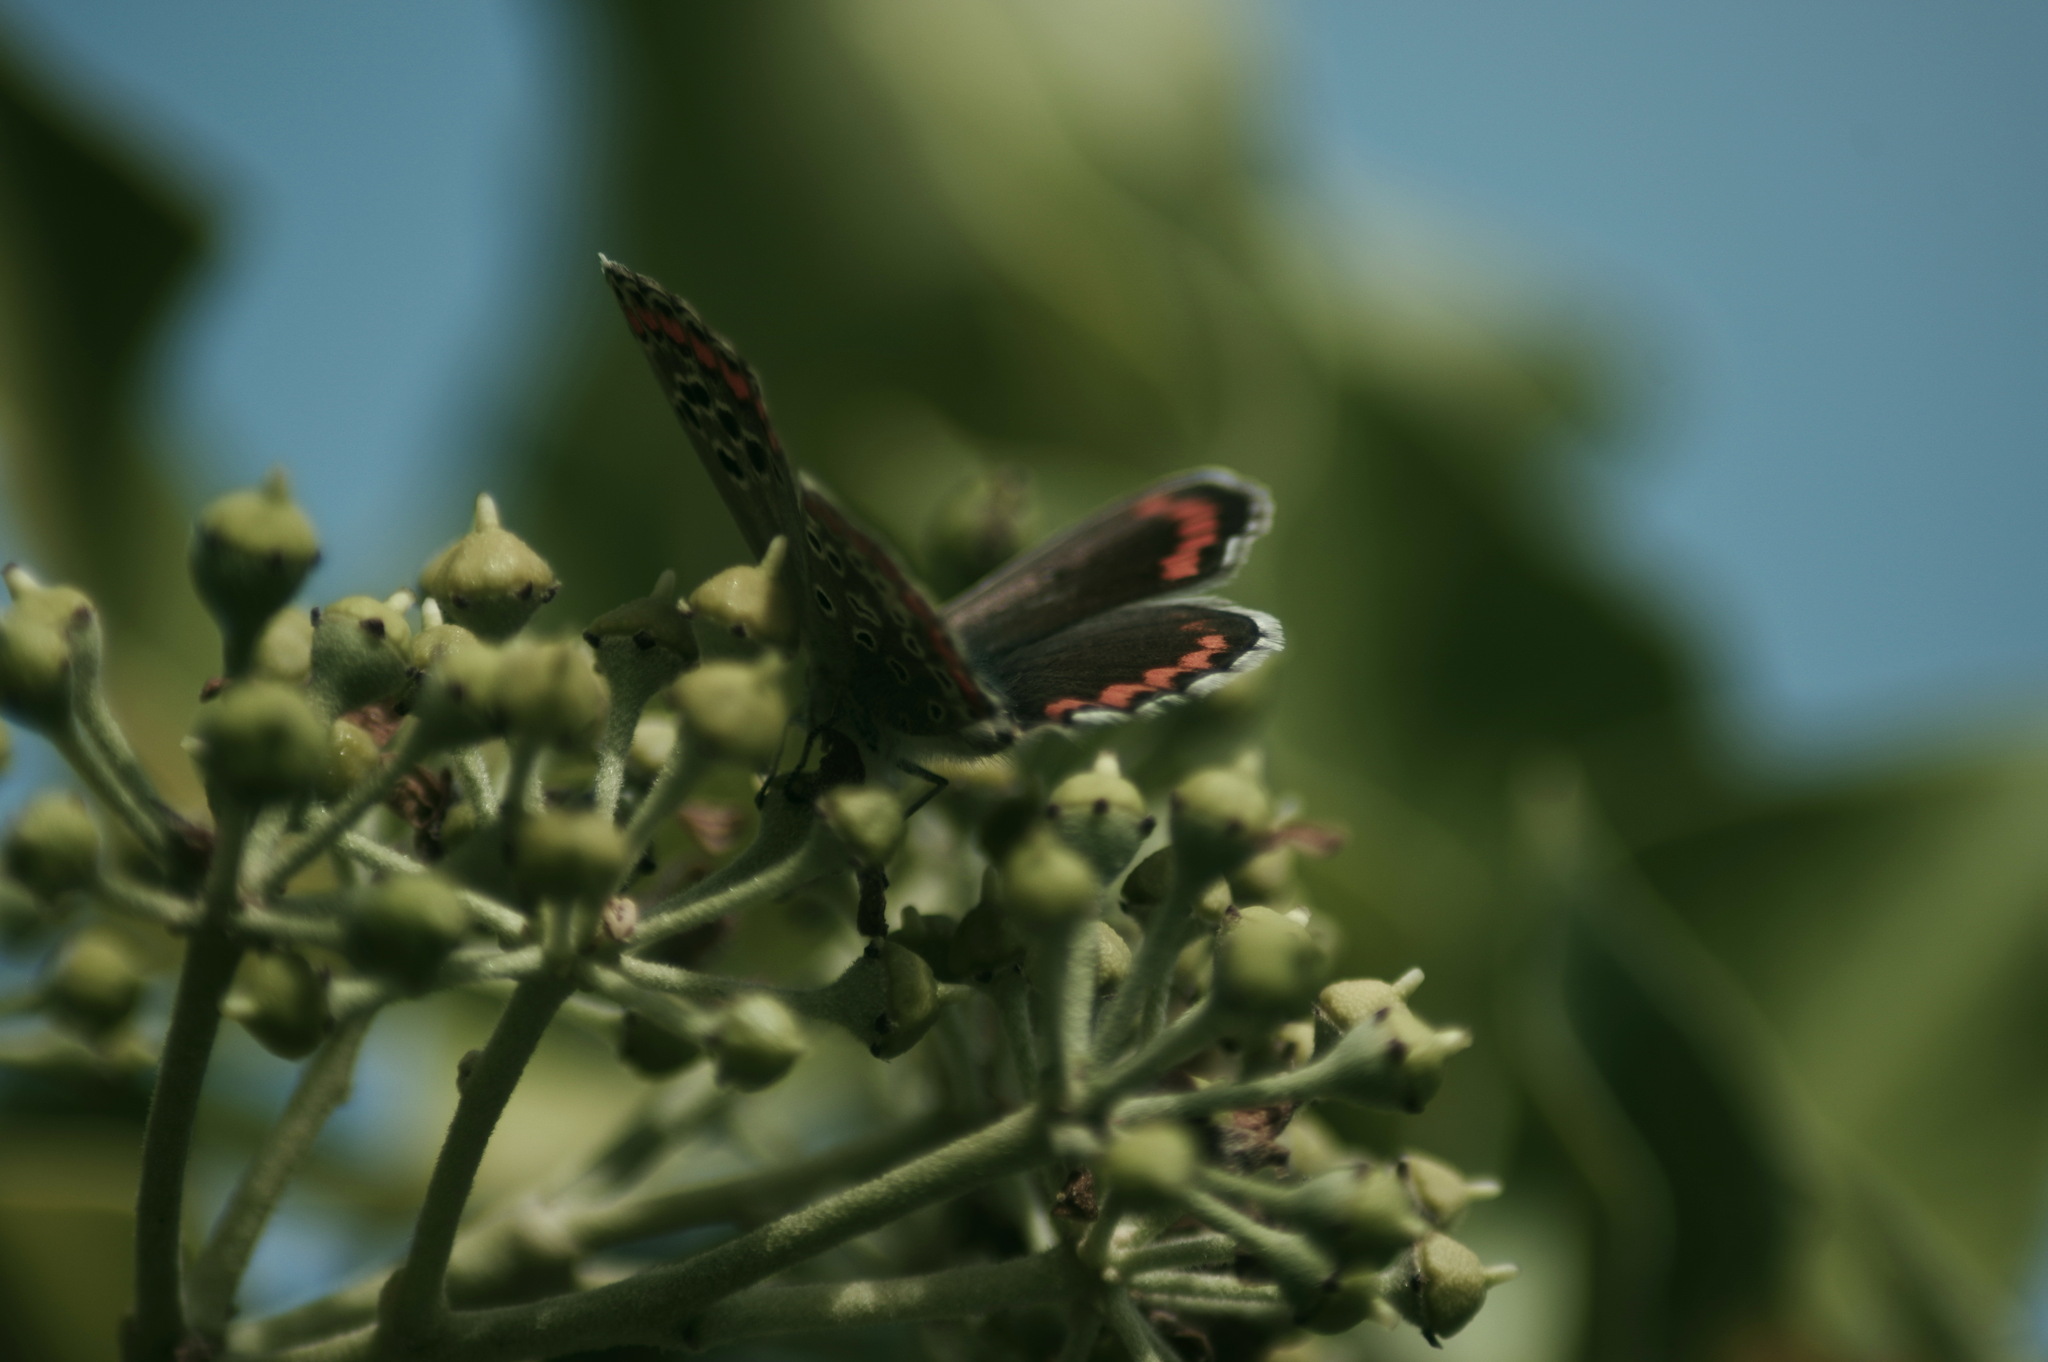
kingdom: Animalia
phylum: Arthropoda
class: Insecta
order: Lepidoptera
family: Lycaenidae
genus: Aricia
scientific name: Aricia cramera
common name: Eschscholtz´s brown  argus
